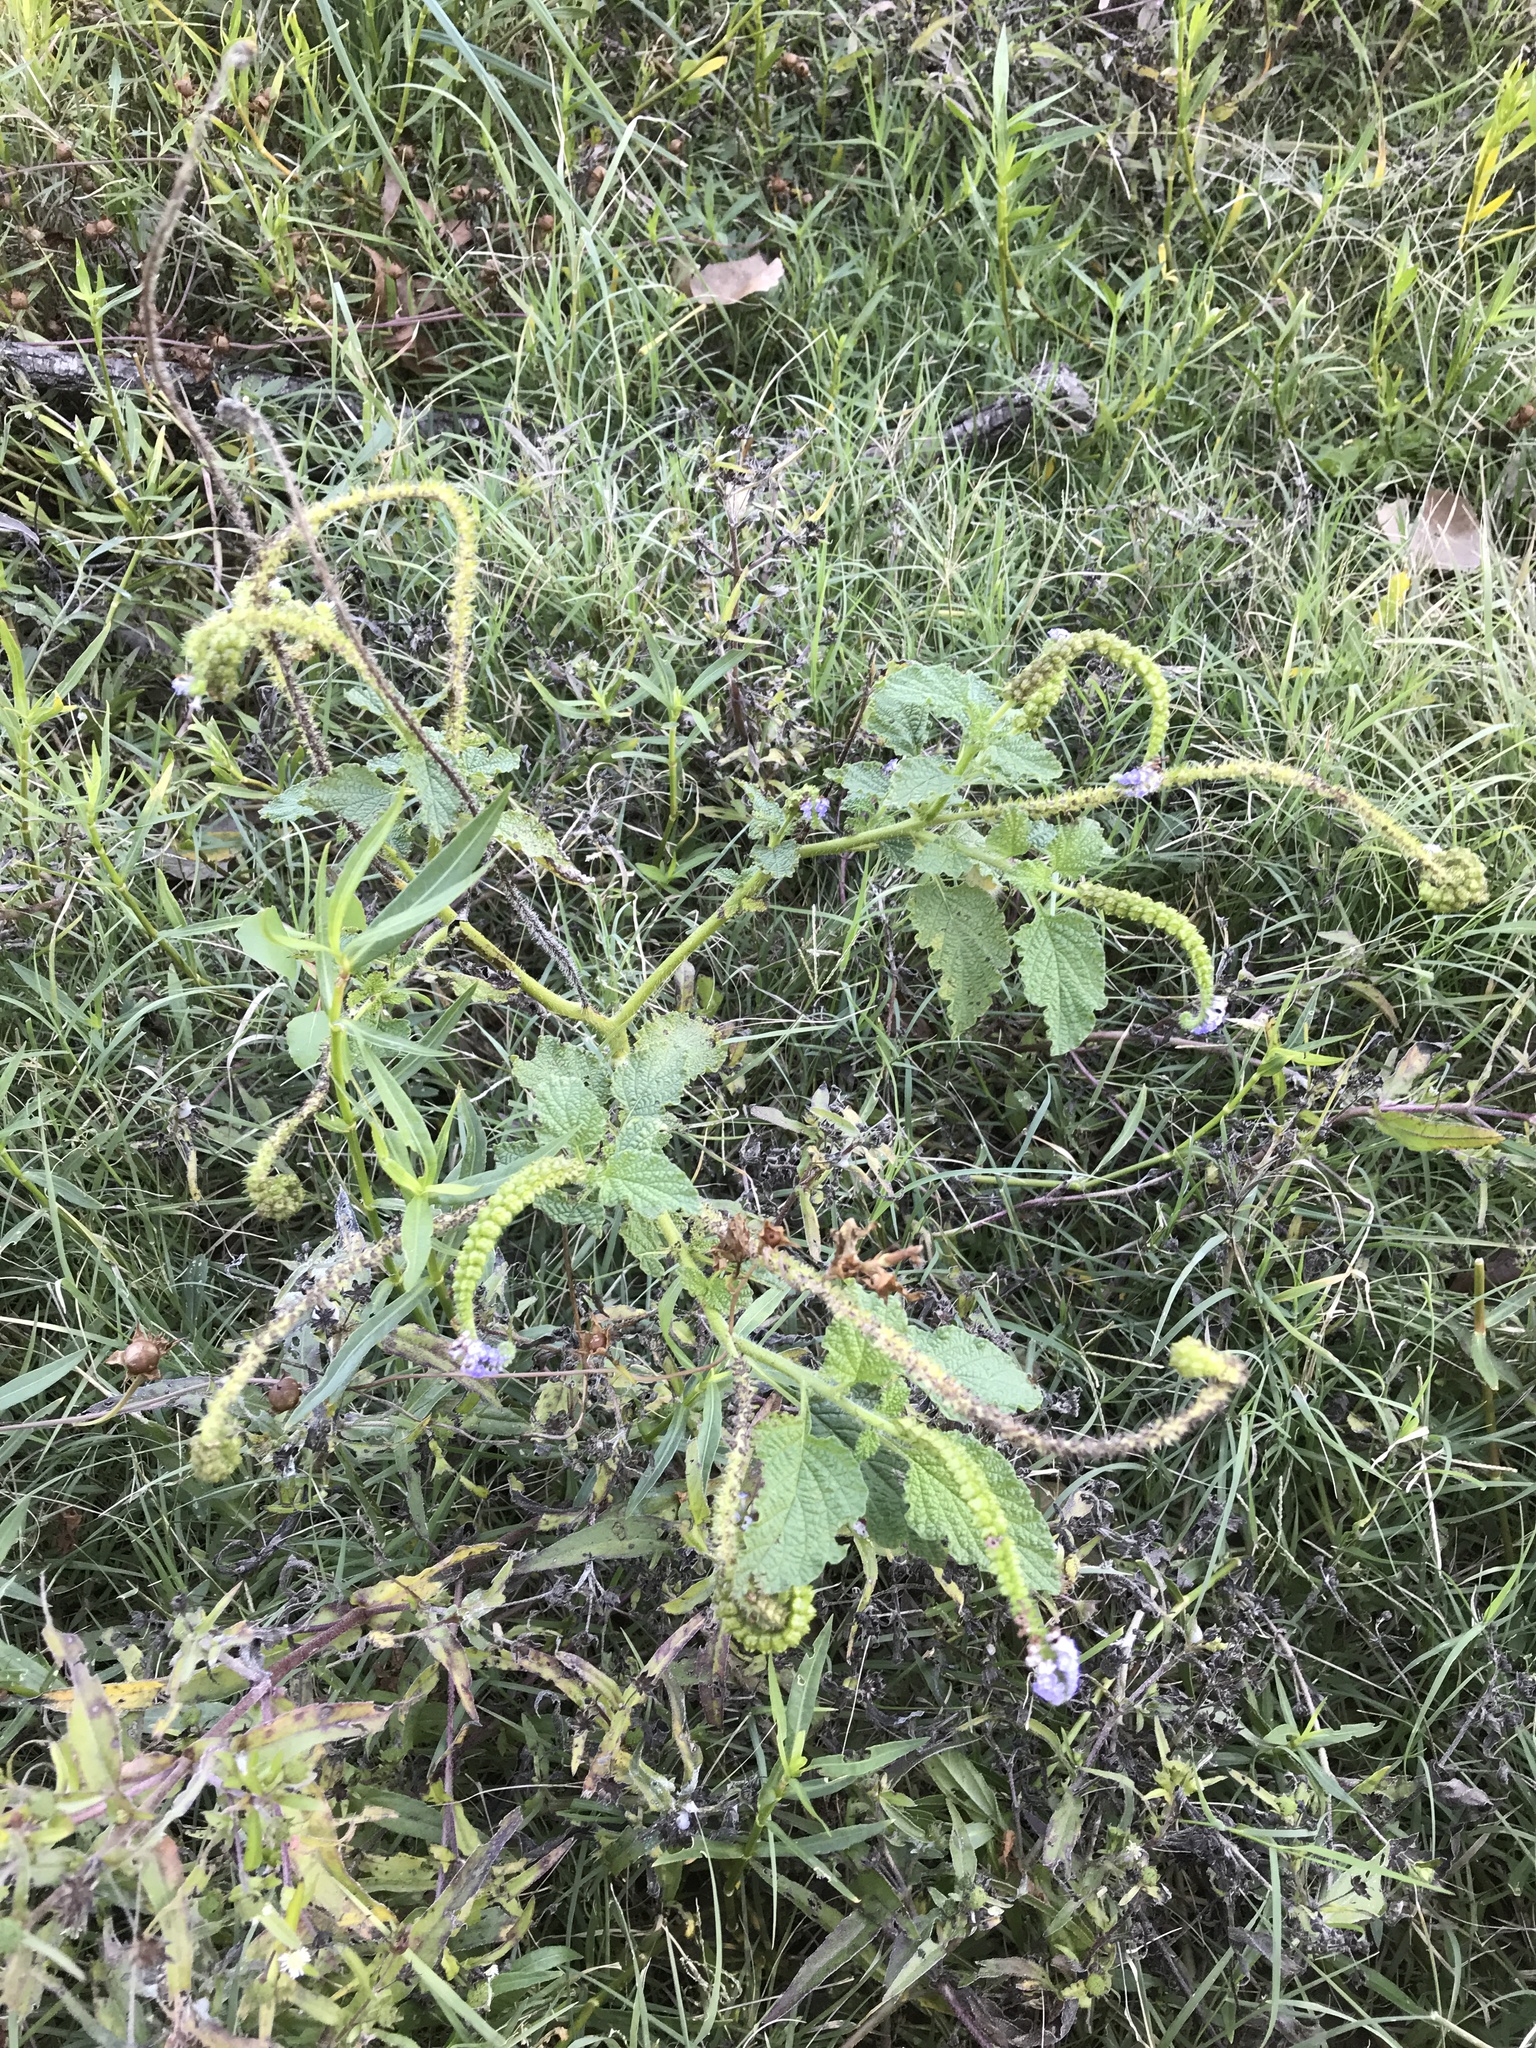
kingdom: Plantae
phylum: Tracheophyta
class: Magnoliopsida
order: Boraginales
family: Heliotropiaceae
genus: Heliotropium
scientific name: Heliotropium indicum
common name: Indian heliotrope
